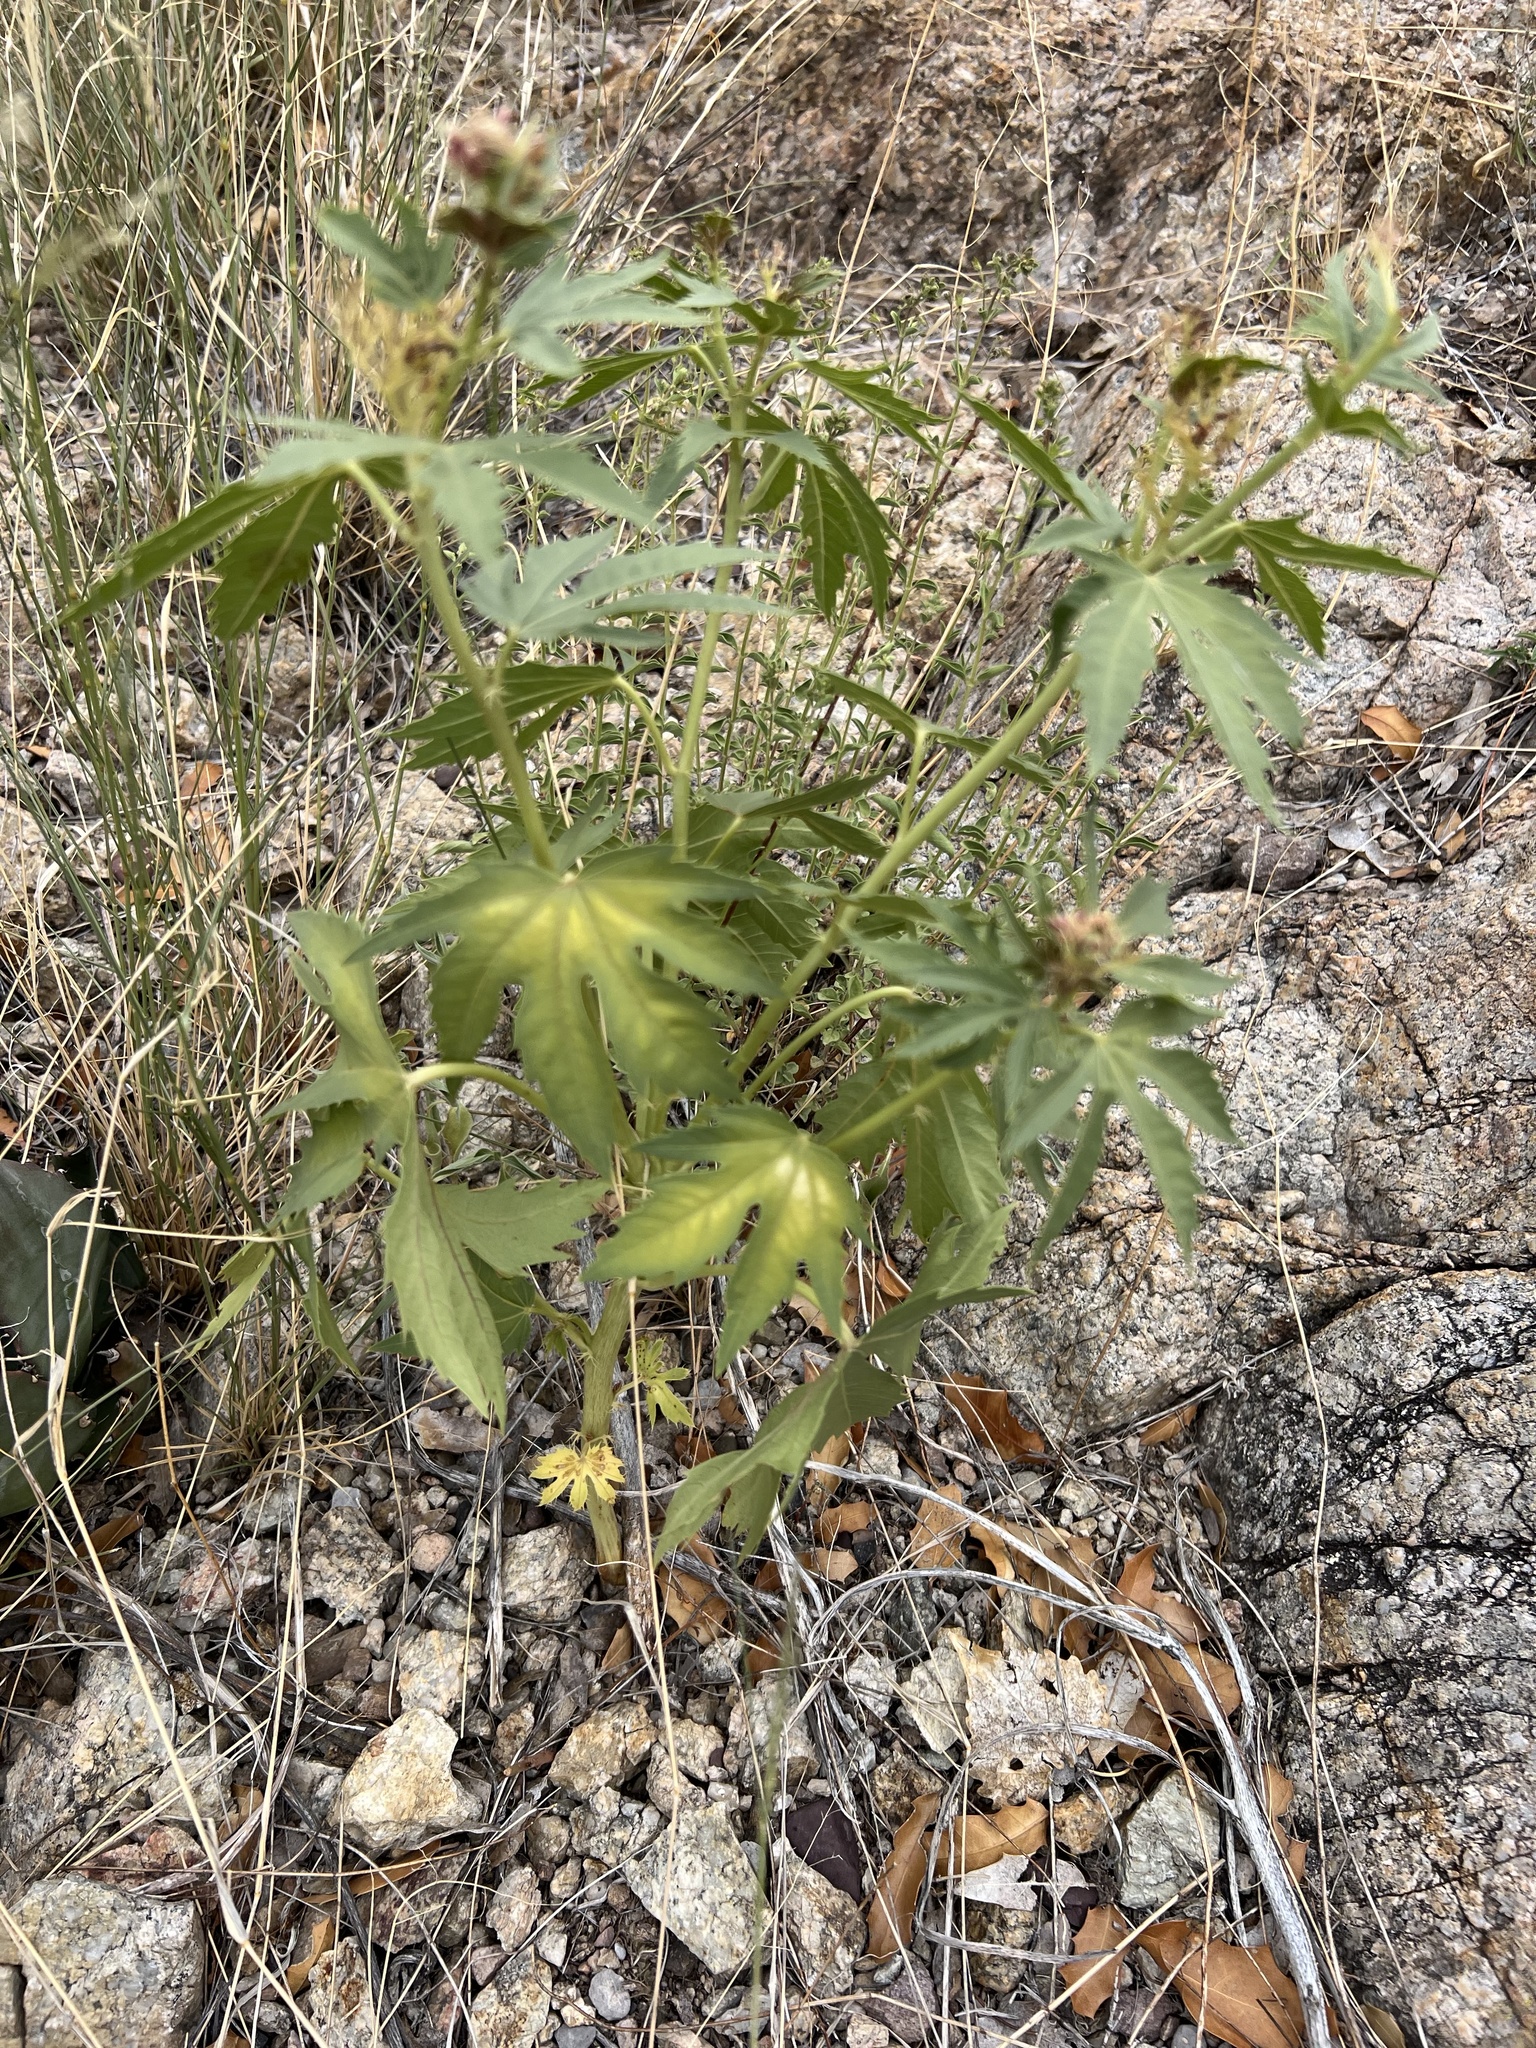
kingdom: Plantae
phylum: Tracheophyta
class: Magnoliopsida
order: Malpighiales
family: Euphorbiaceae
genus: Jatropha
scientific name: Jatropha macrorhiza
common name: Ragged nettlespurge
